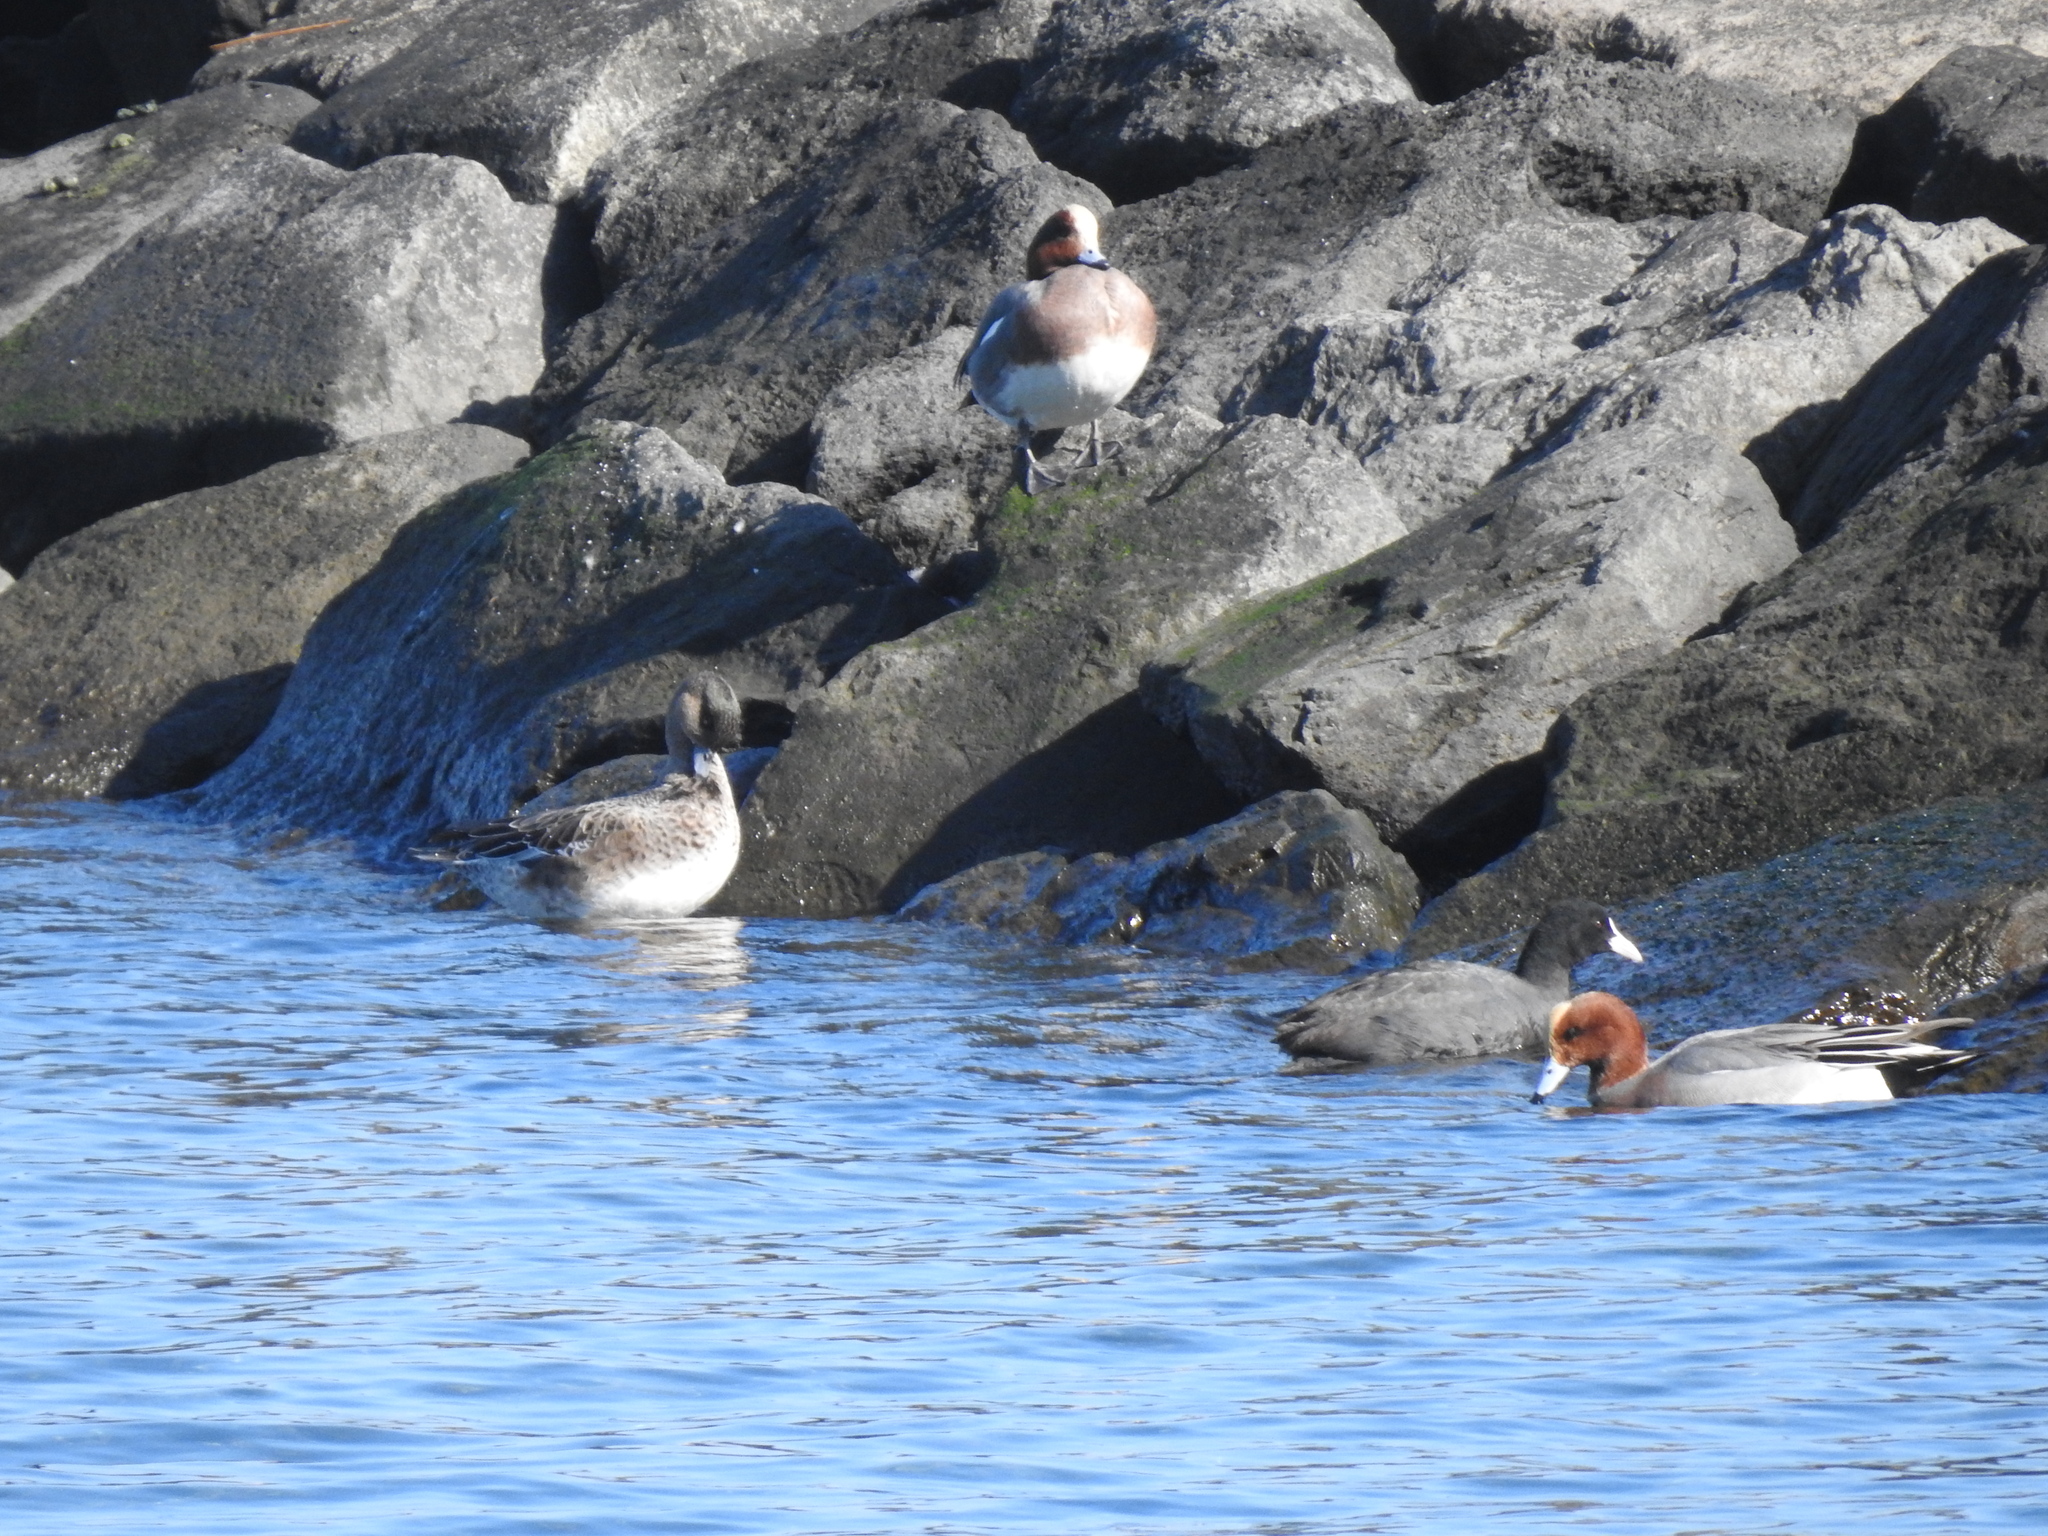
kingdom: Animalia
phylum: Chordata
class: Aves
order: Anseriformes
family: Anatidae
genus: Mareca
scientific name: Mareca penelope
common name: Eurasian wigeon
